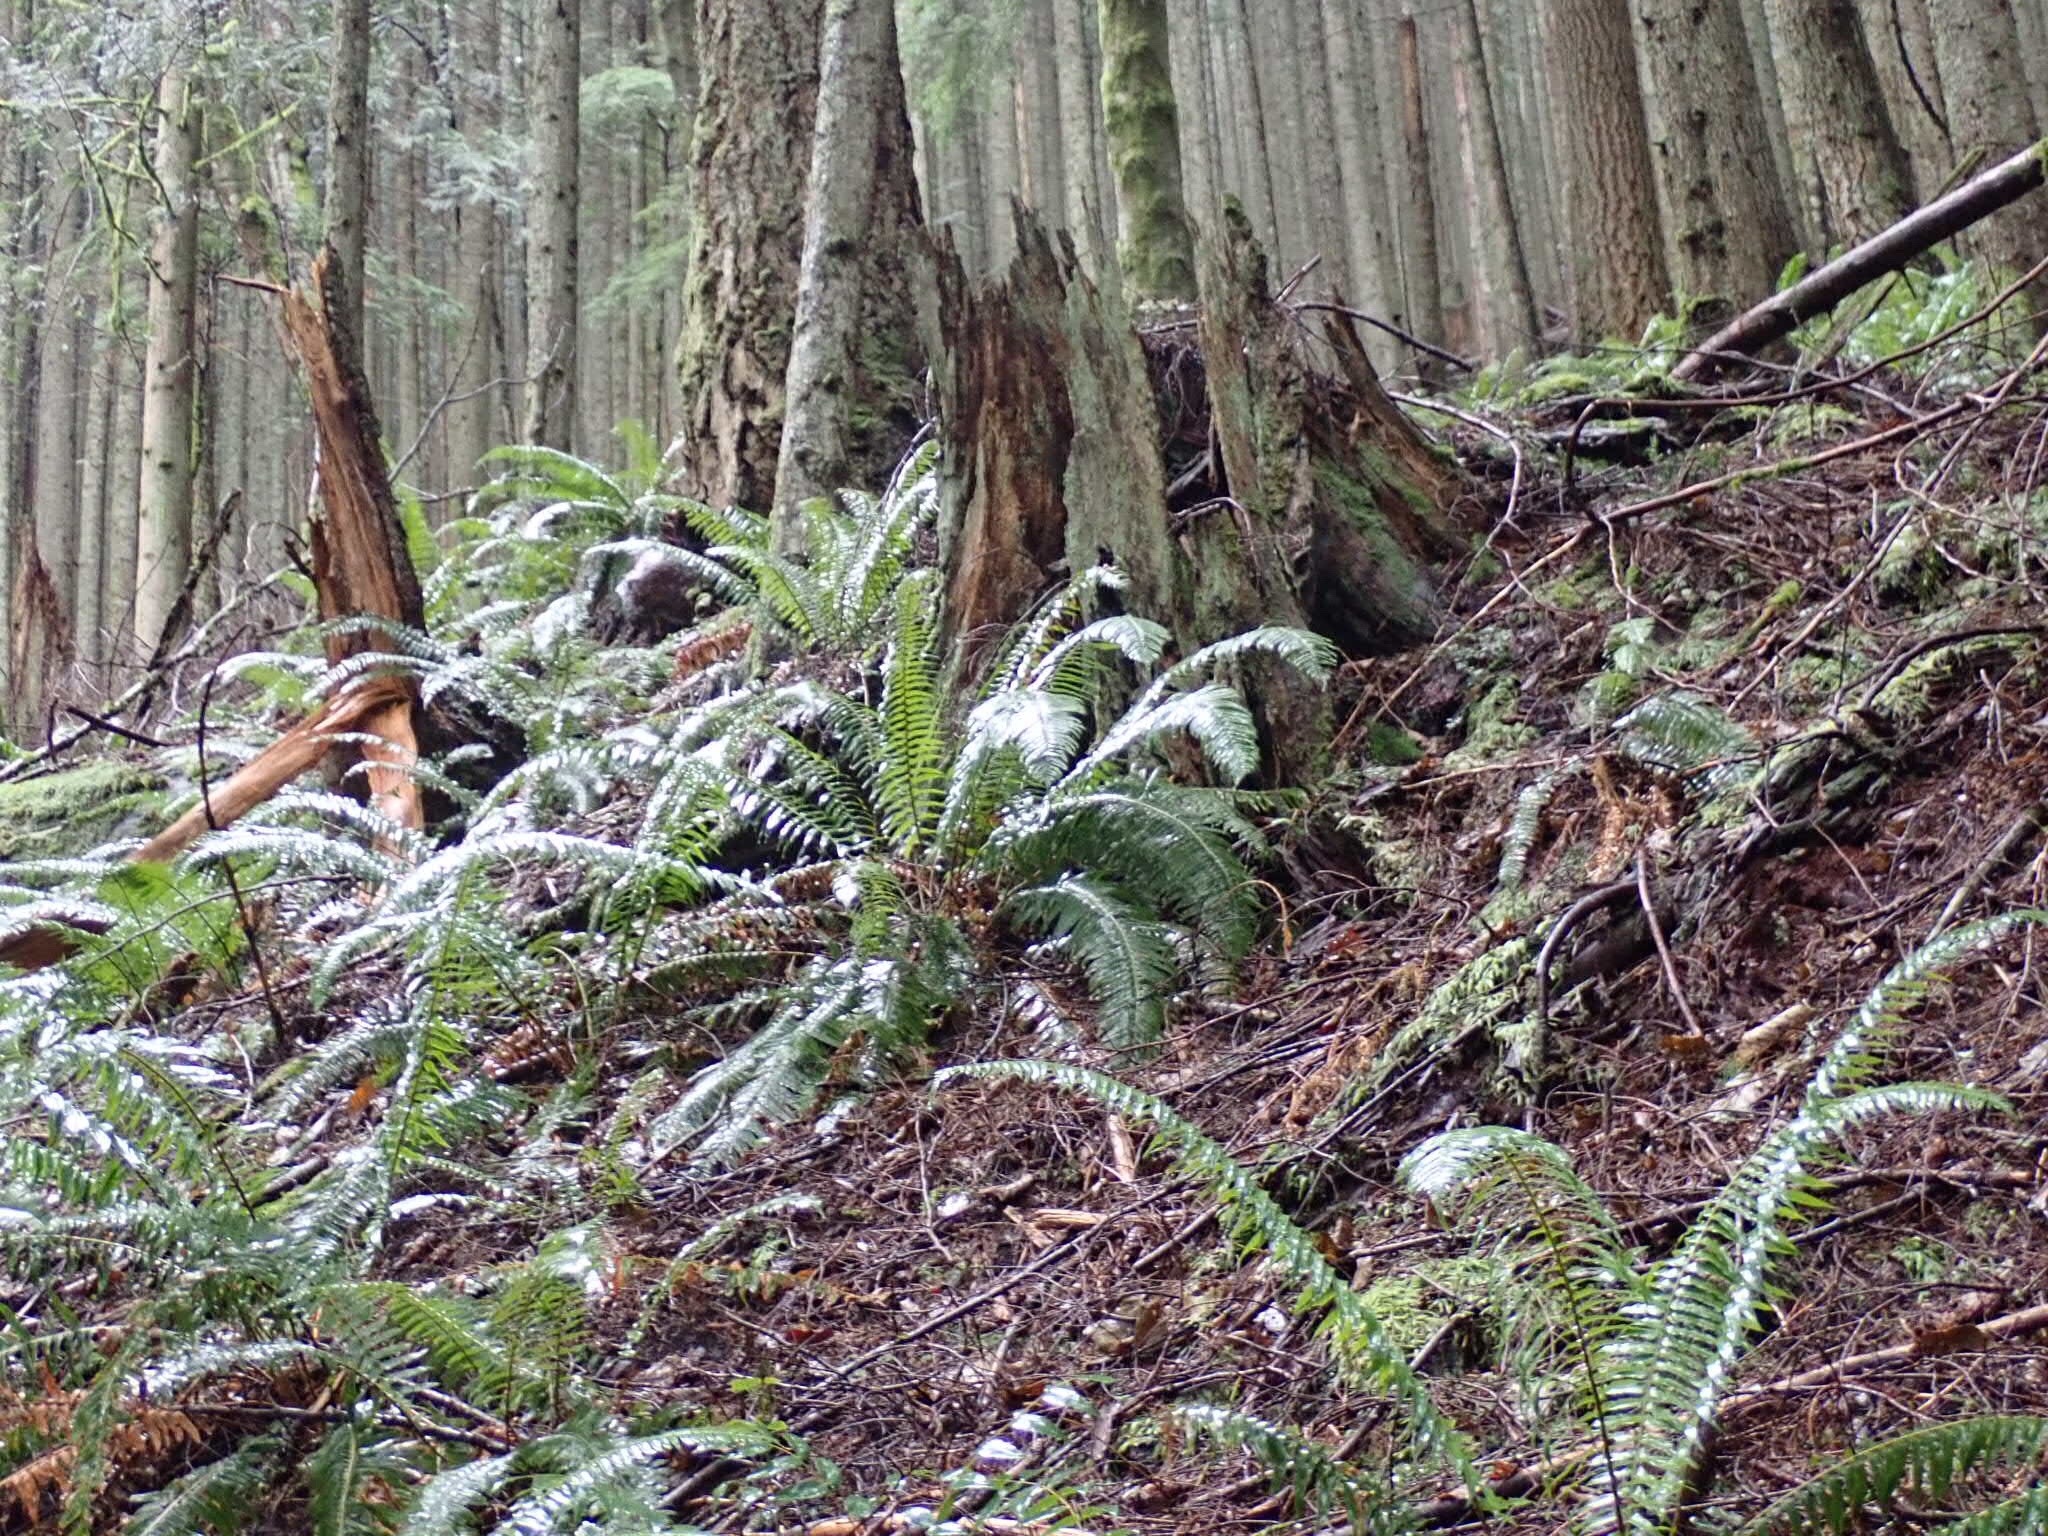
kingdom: Plantae
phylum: Tracheophyta
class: Polypodiopsida
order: Polypodiales
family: Dryopteridaceae
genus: Polystichum
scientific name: Polystichum munitum
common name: Western sword-fern
